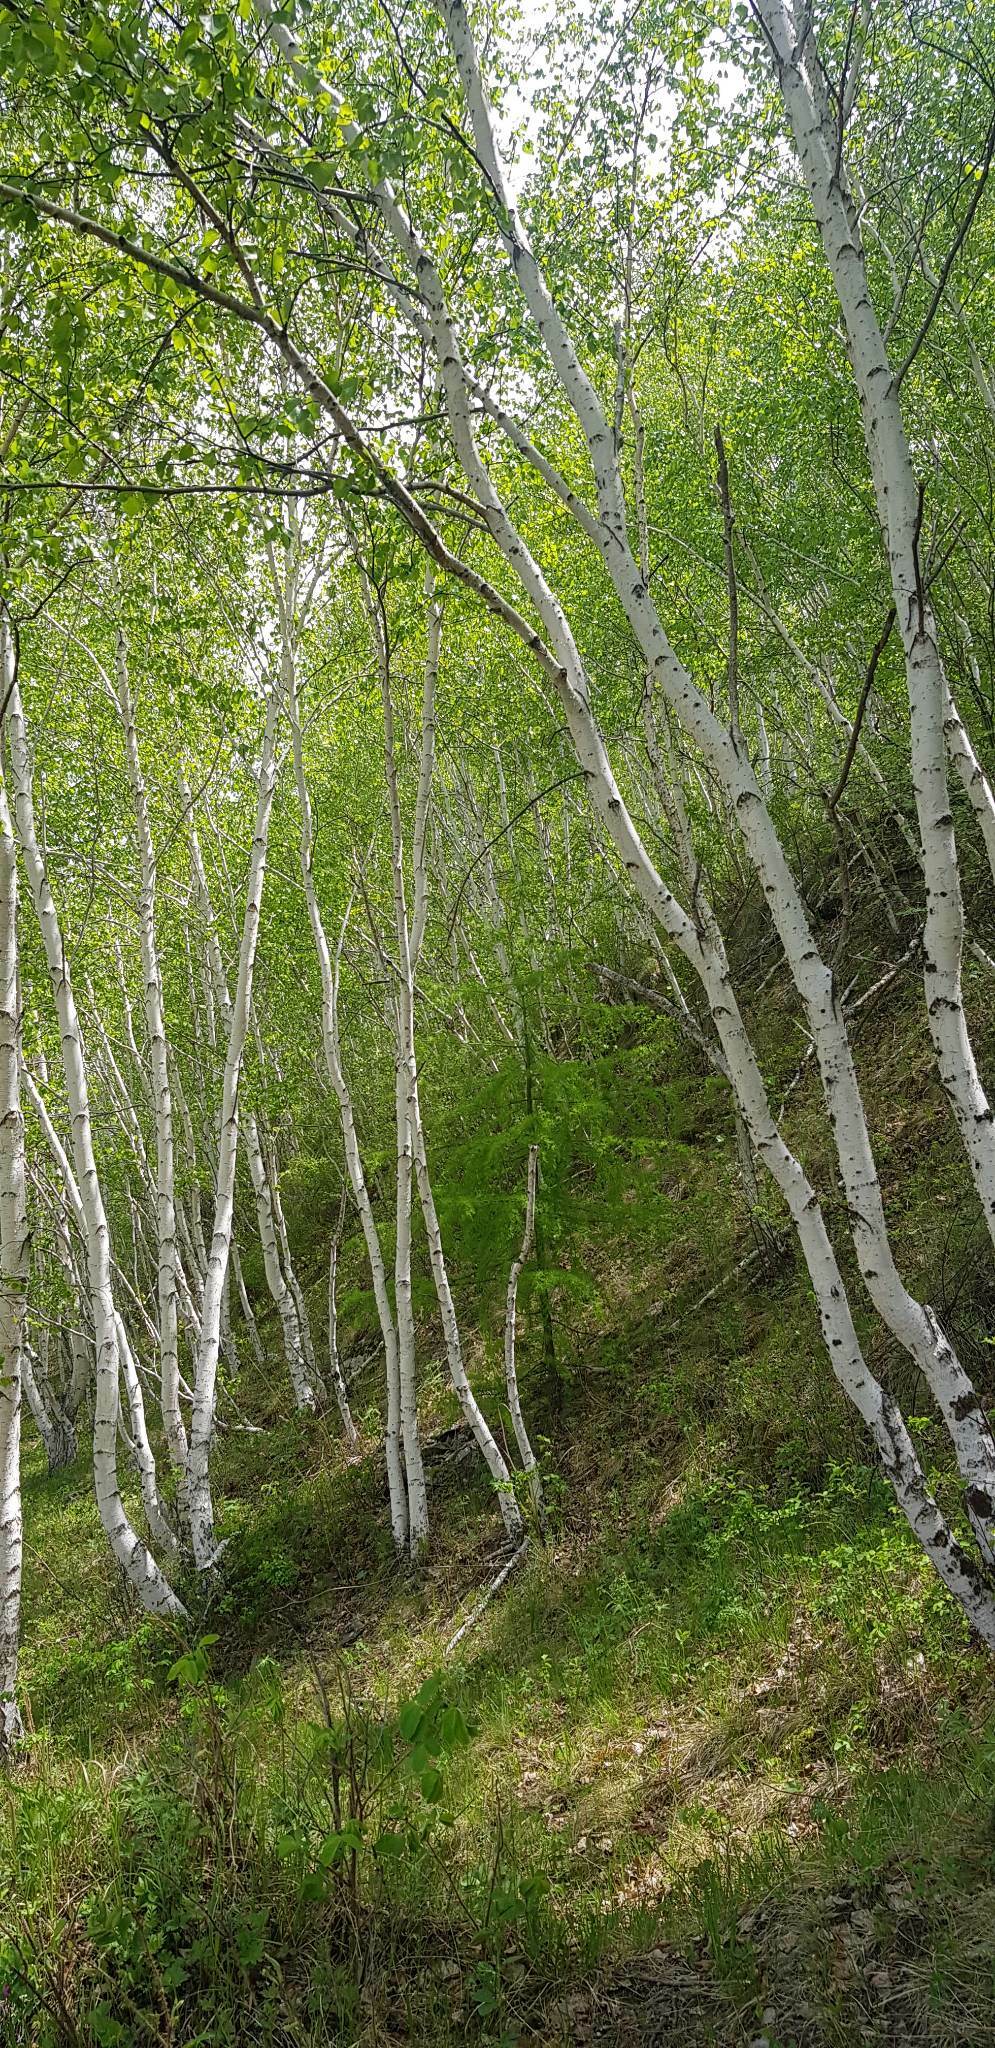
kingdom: Plantae
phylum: Tracheophyta
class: Magnoliopsida
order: Fagales
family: Betulaceae
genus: Betula
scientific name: Betula pendula
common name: Silver birch
